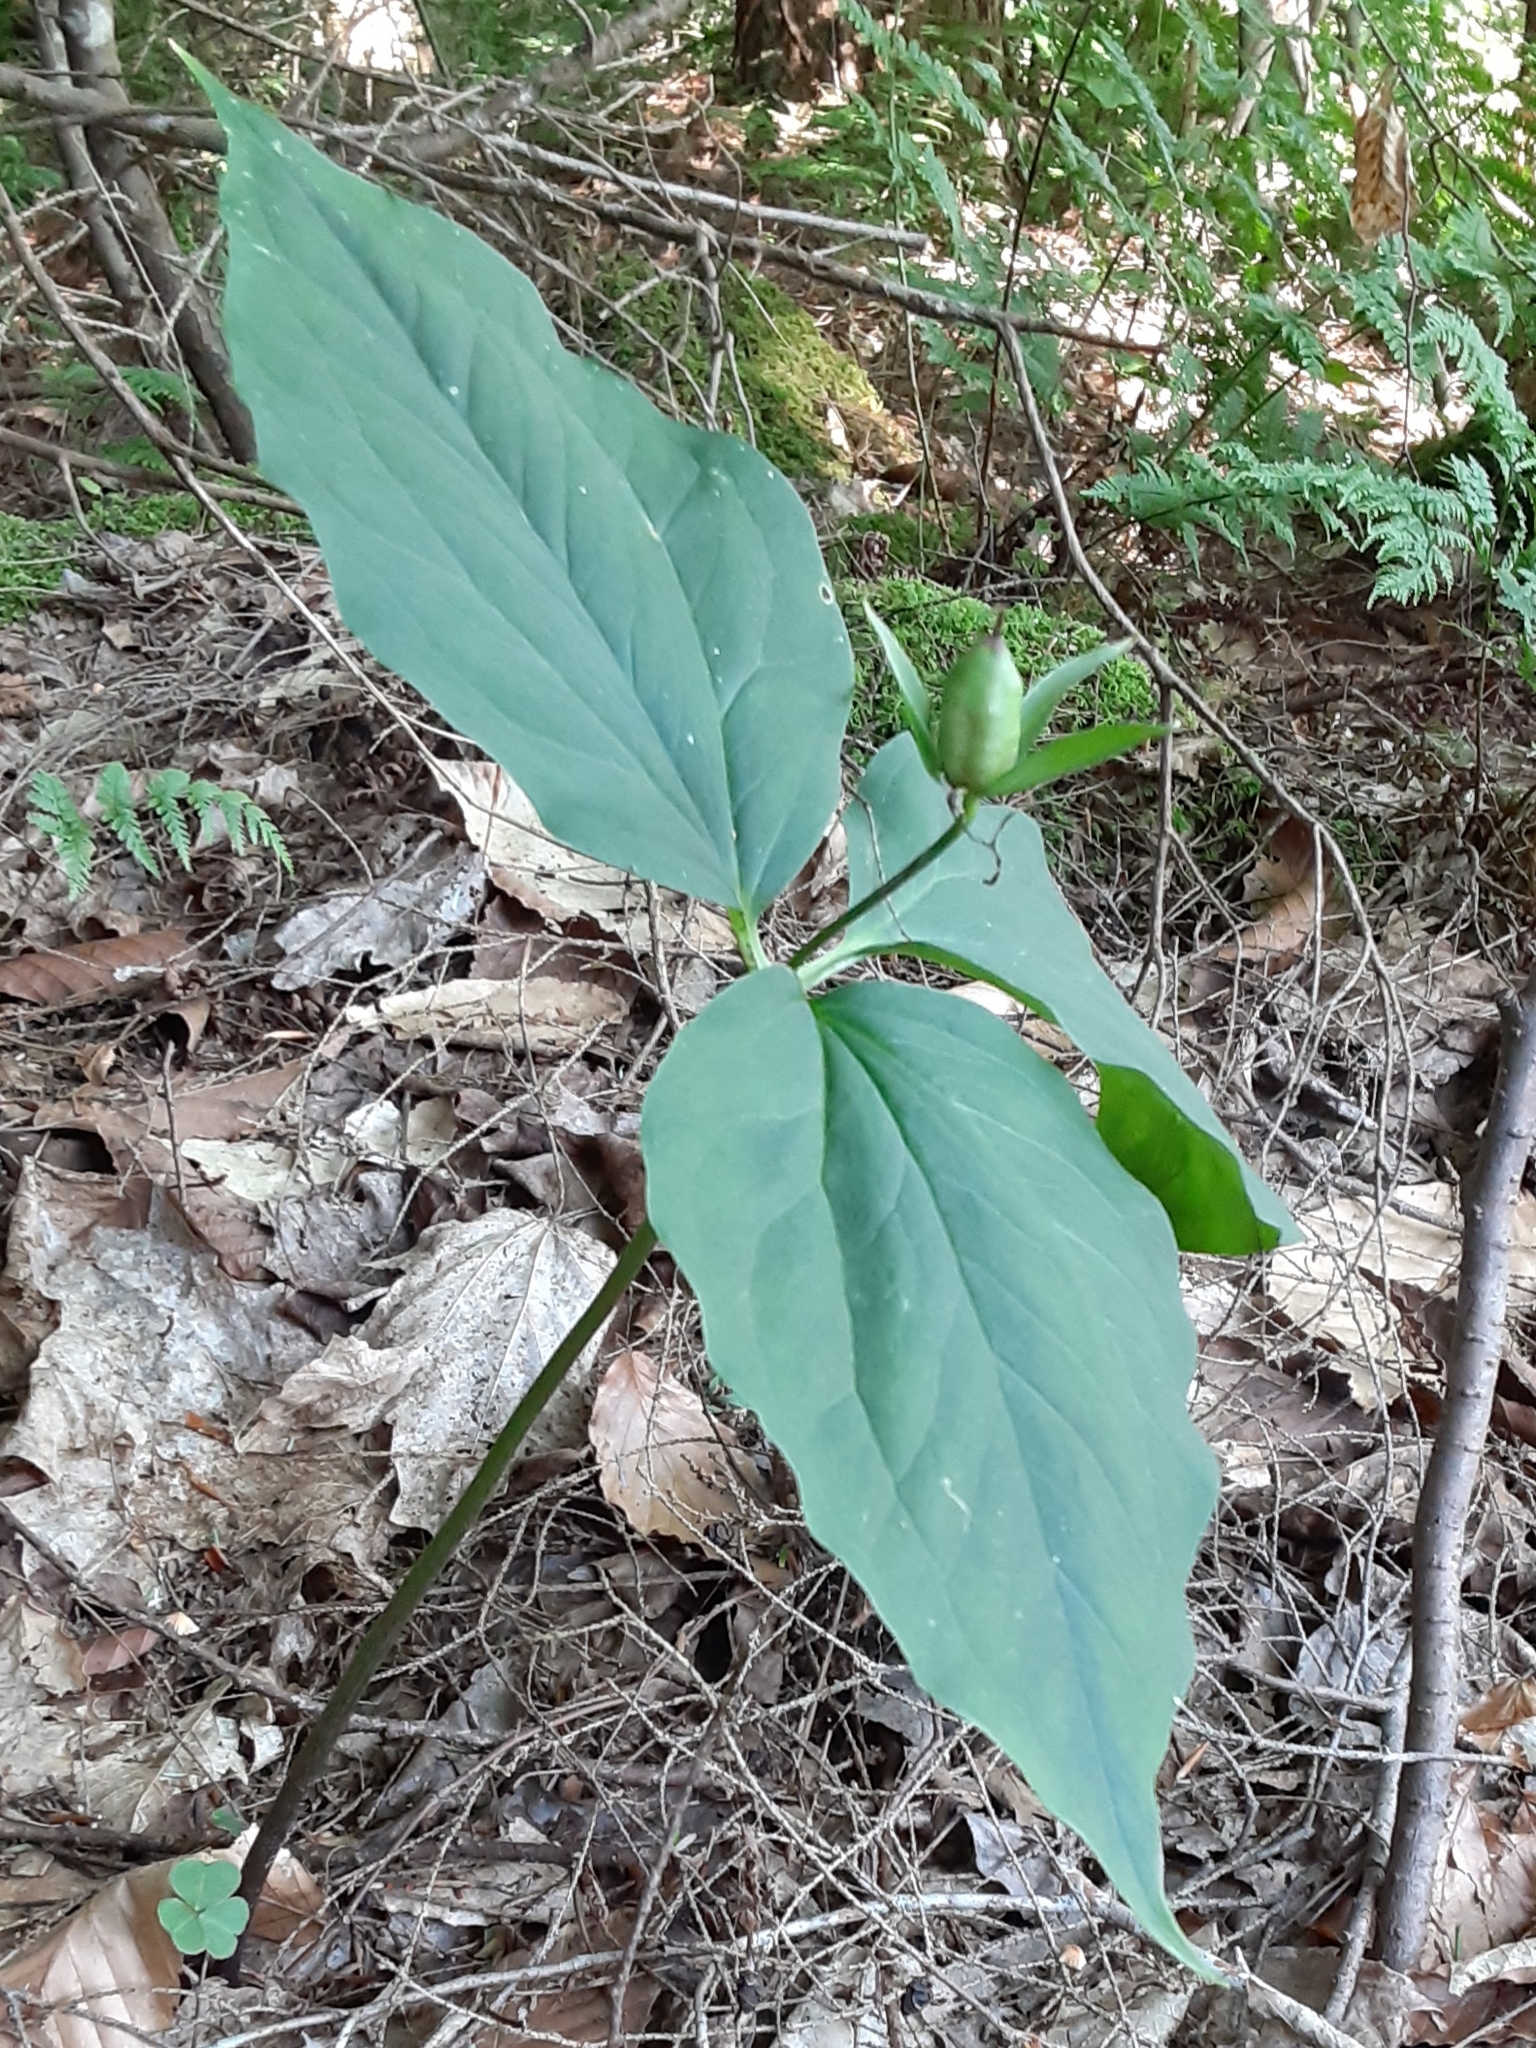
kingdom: Plantae
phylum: Tracheophyta
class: Liliopsida
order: Liliales
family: Melanthiaceae
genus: Trillium
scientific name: Trillium undulatum
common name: Paint trillium
